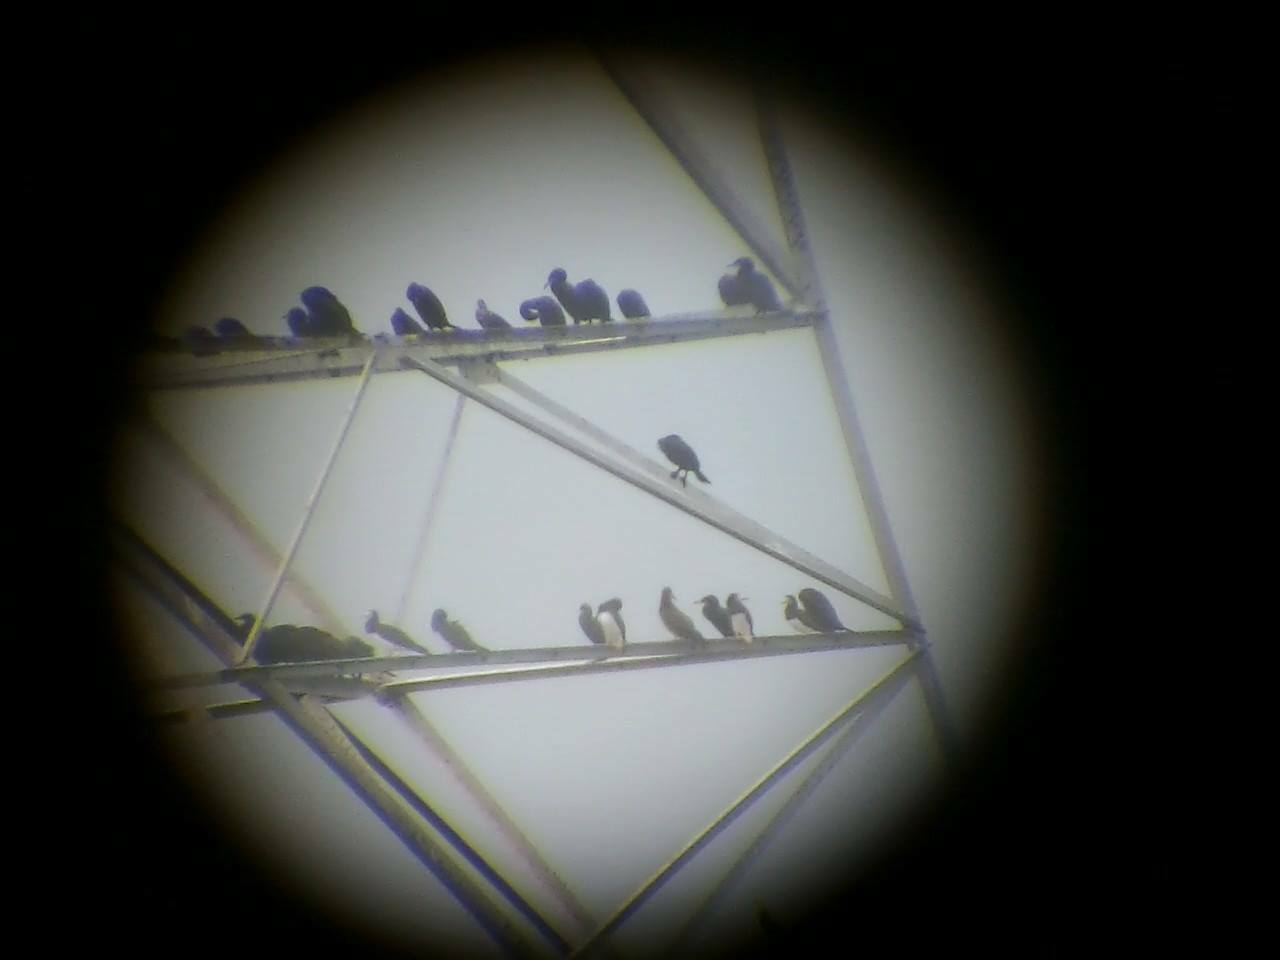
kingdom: Animalia
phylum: Chordata
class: Aves
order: Suliformes
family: Sulidae
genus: Sula
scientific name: Sula leucogaster
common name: Brown booby
